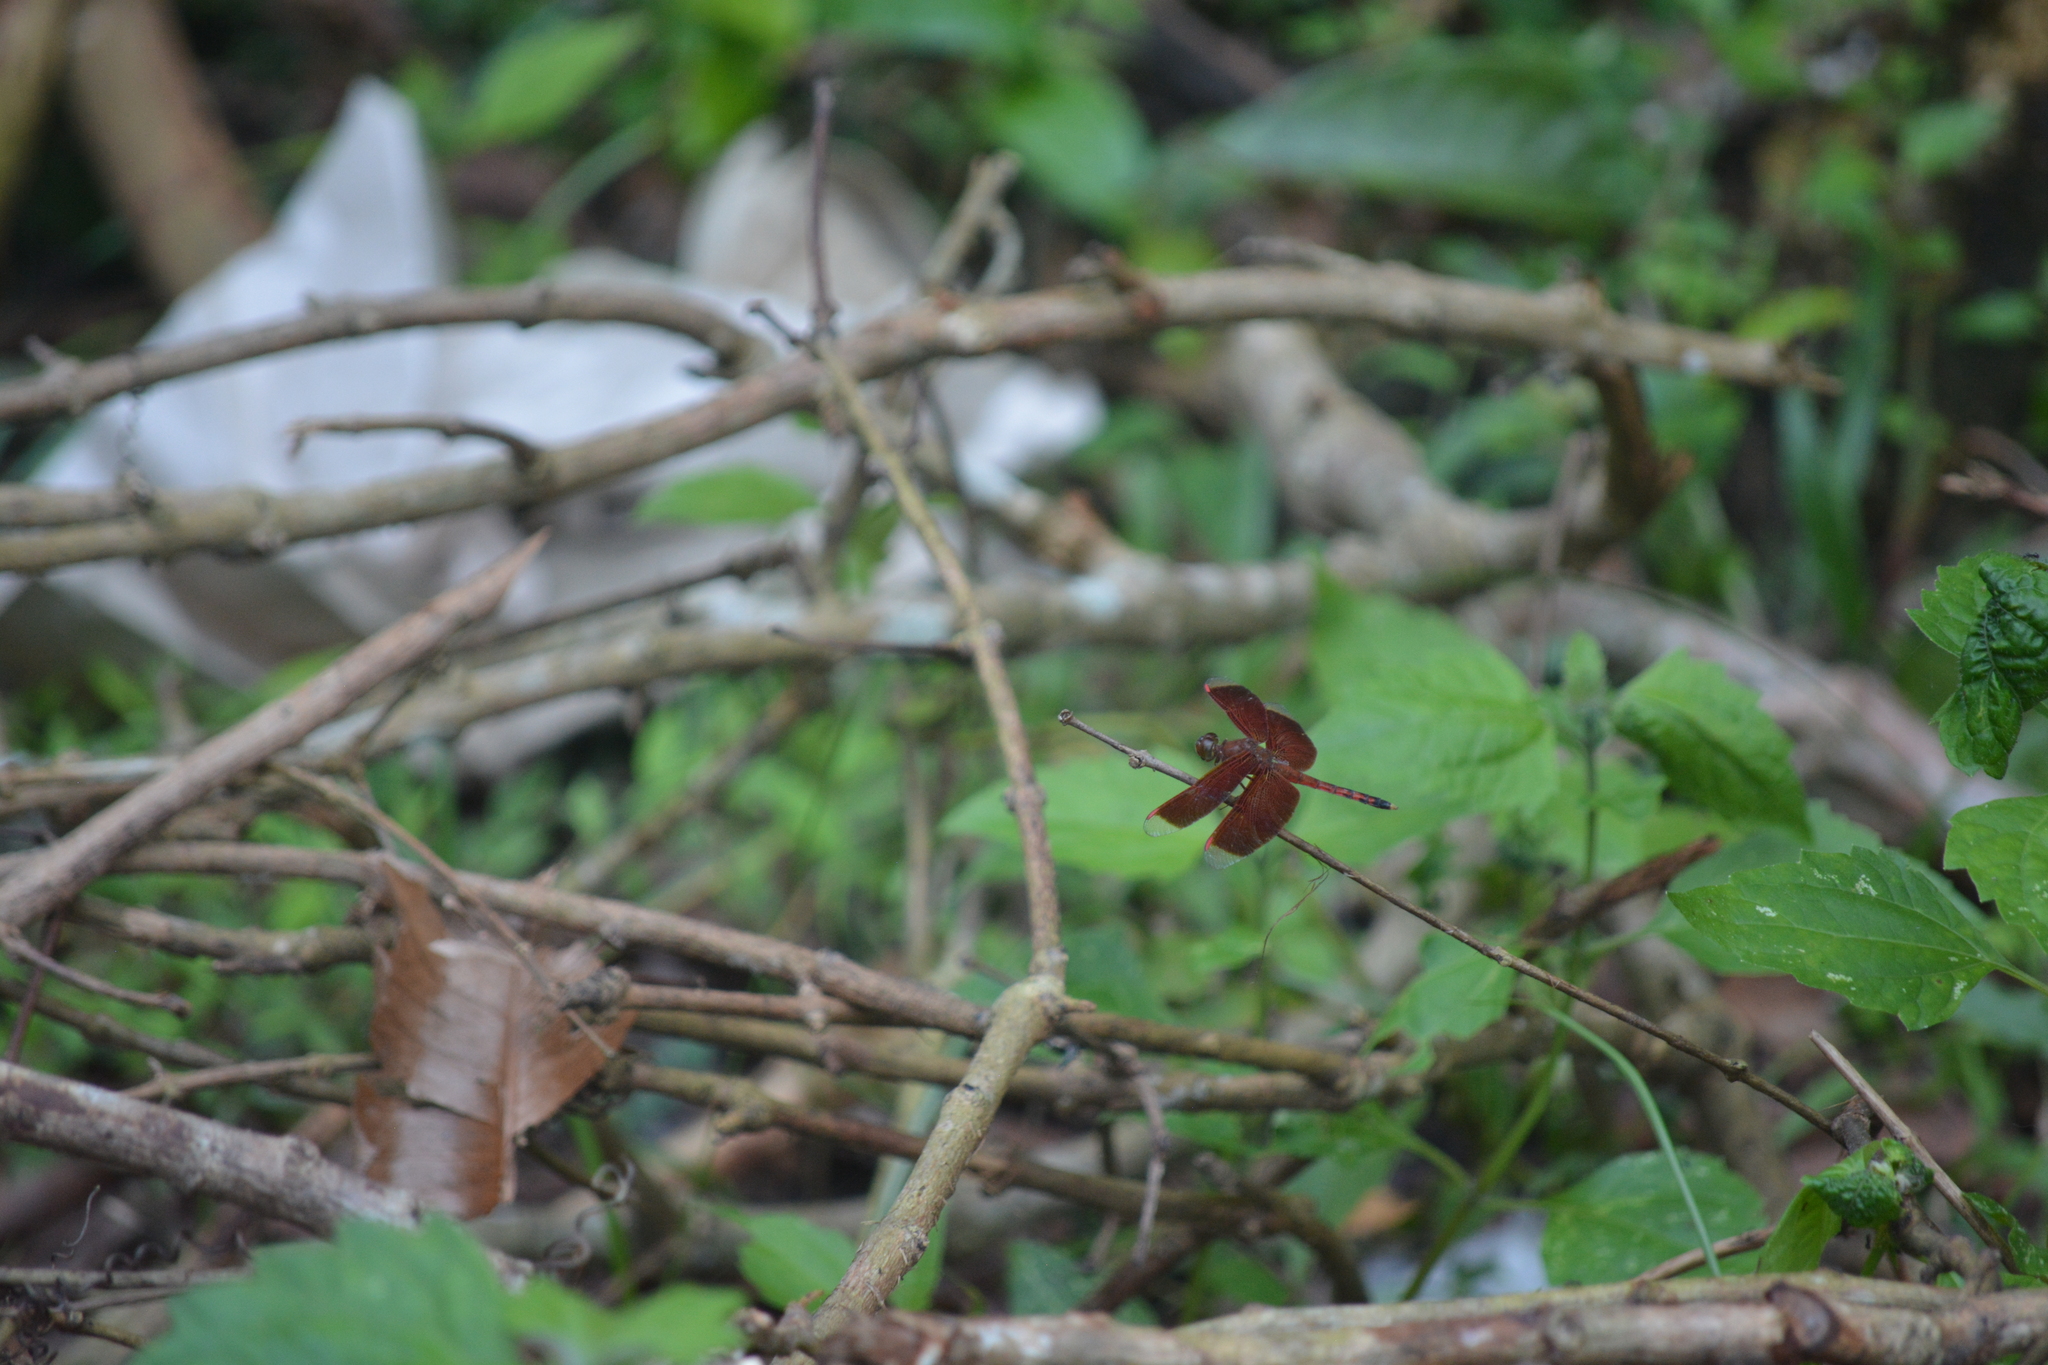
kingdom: Animalia
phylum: Arthropoda
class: Insecta
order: Odonata
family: Libellulidae
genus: Neurothemis
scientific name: Neurothemis terminata
